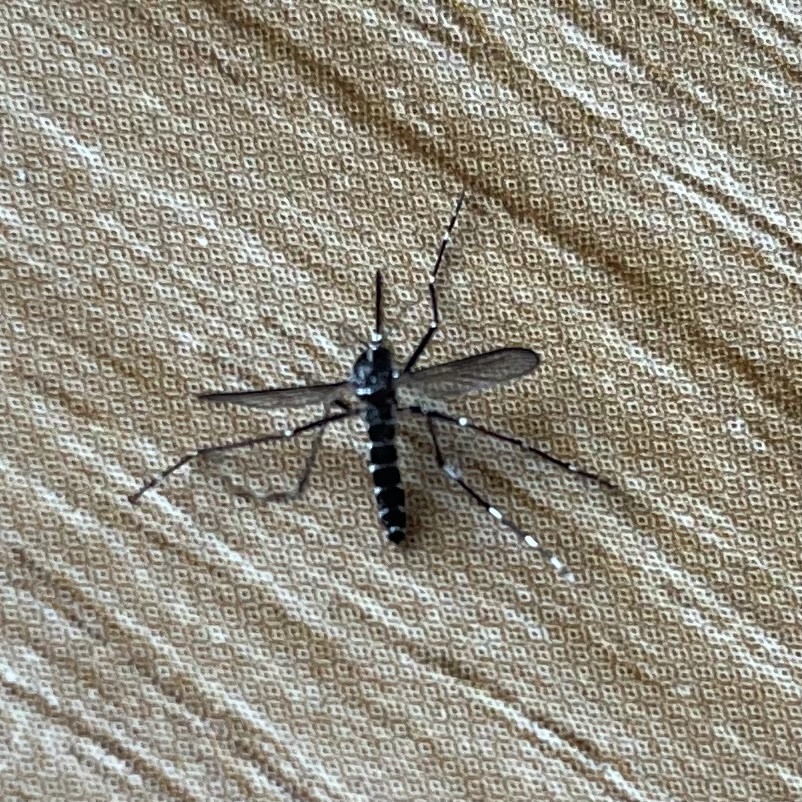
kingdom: Animalia
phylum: Arthropoda
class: Insecta
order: Diptera
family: Culicidae
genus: Aedes
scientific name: Aedes albopictus
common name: Tiger mosquito
